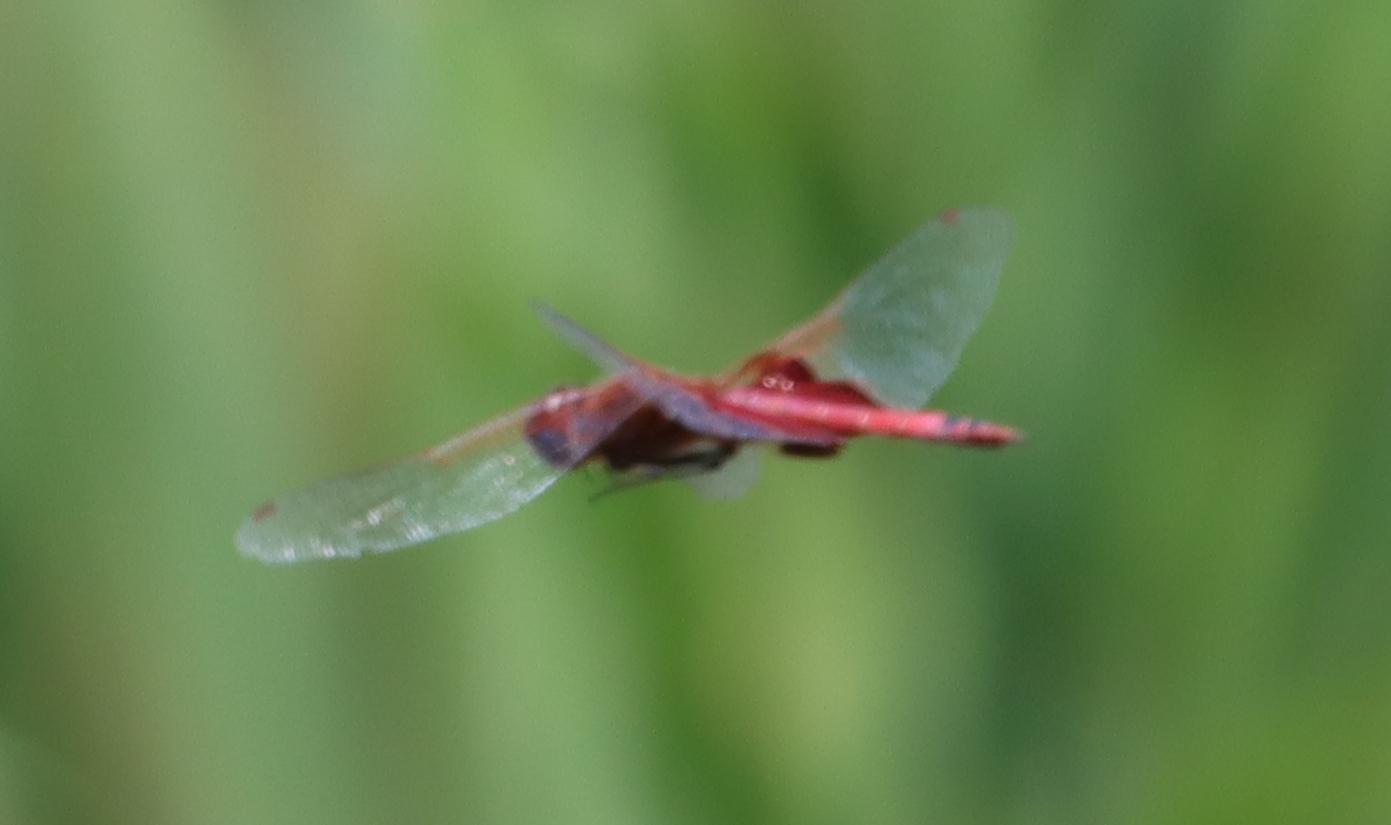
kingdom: Animalia
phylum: Arthropoda
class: Insecta
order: Odonata
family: Libellulidae
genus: Tramea
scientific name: Tramea carolina
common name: Carolina saddlebags
